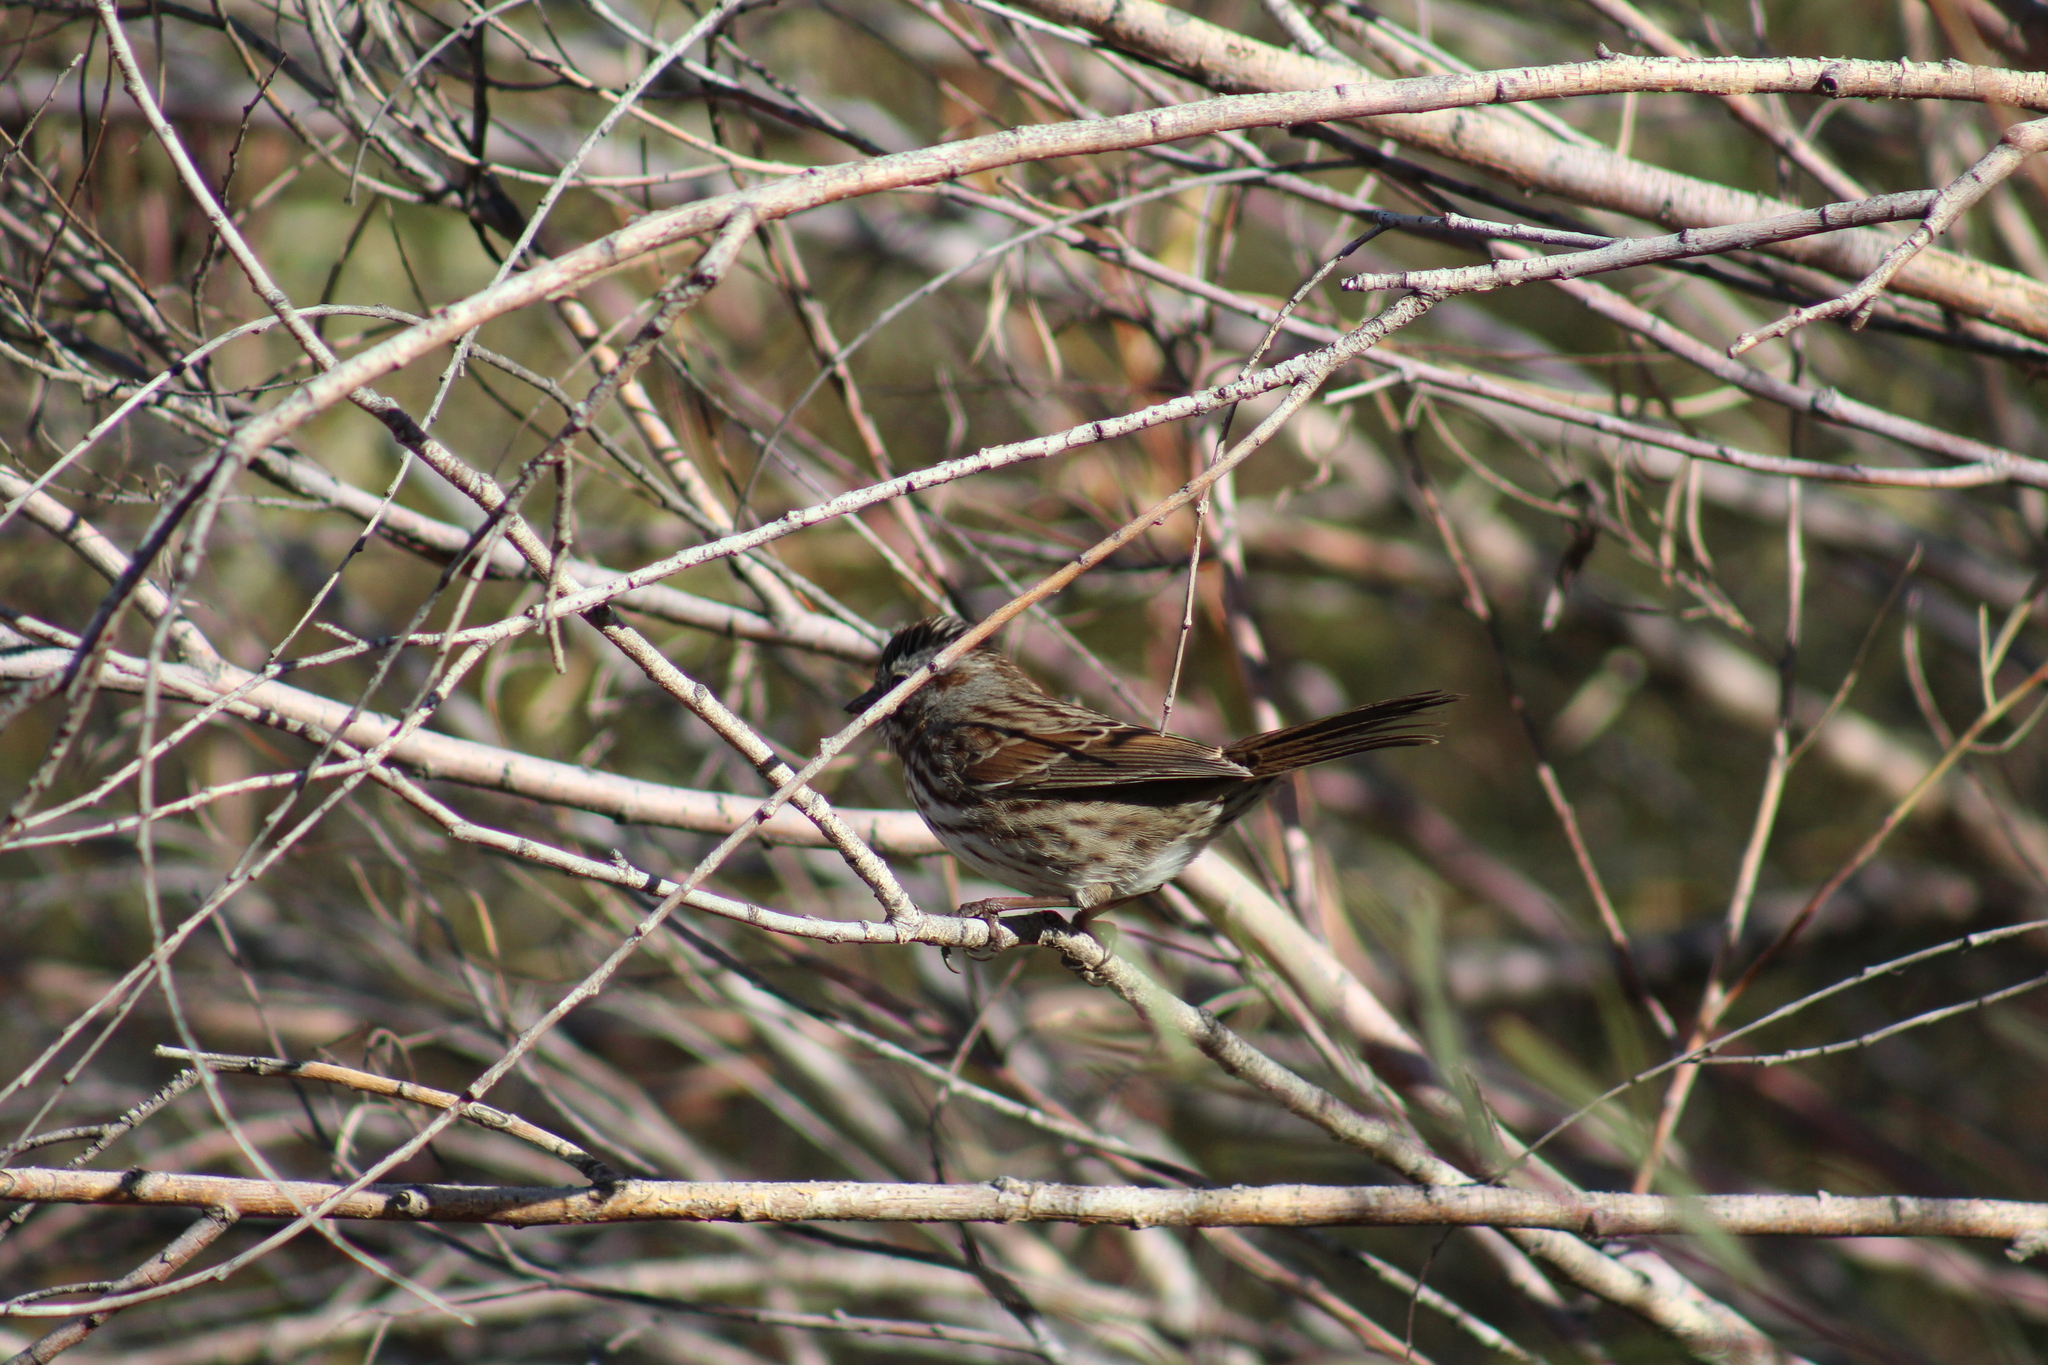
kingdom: Animalia
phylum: Chordata
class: Aves
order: Passeriformes
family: Passerellidae
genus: Melospiza
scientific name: Melospiza melodia
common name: Song sparrow
